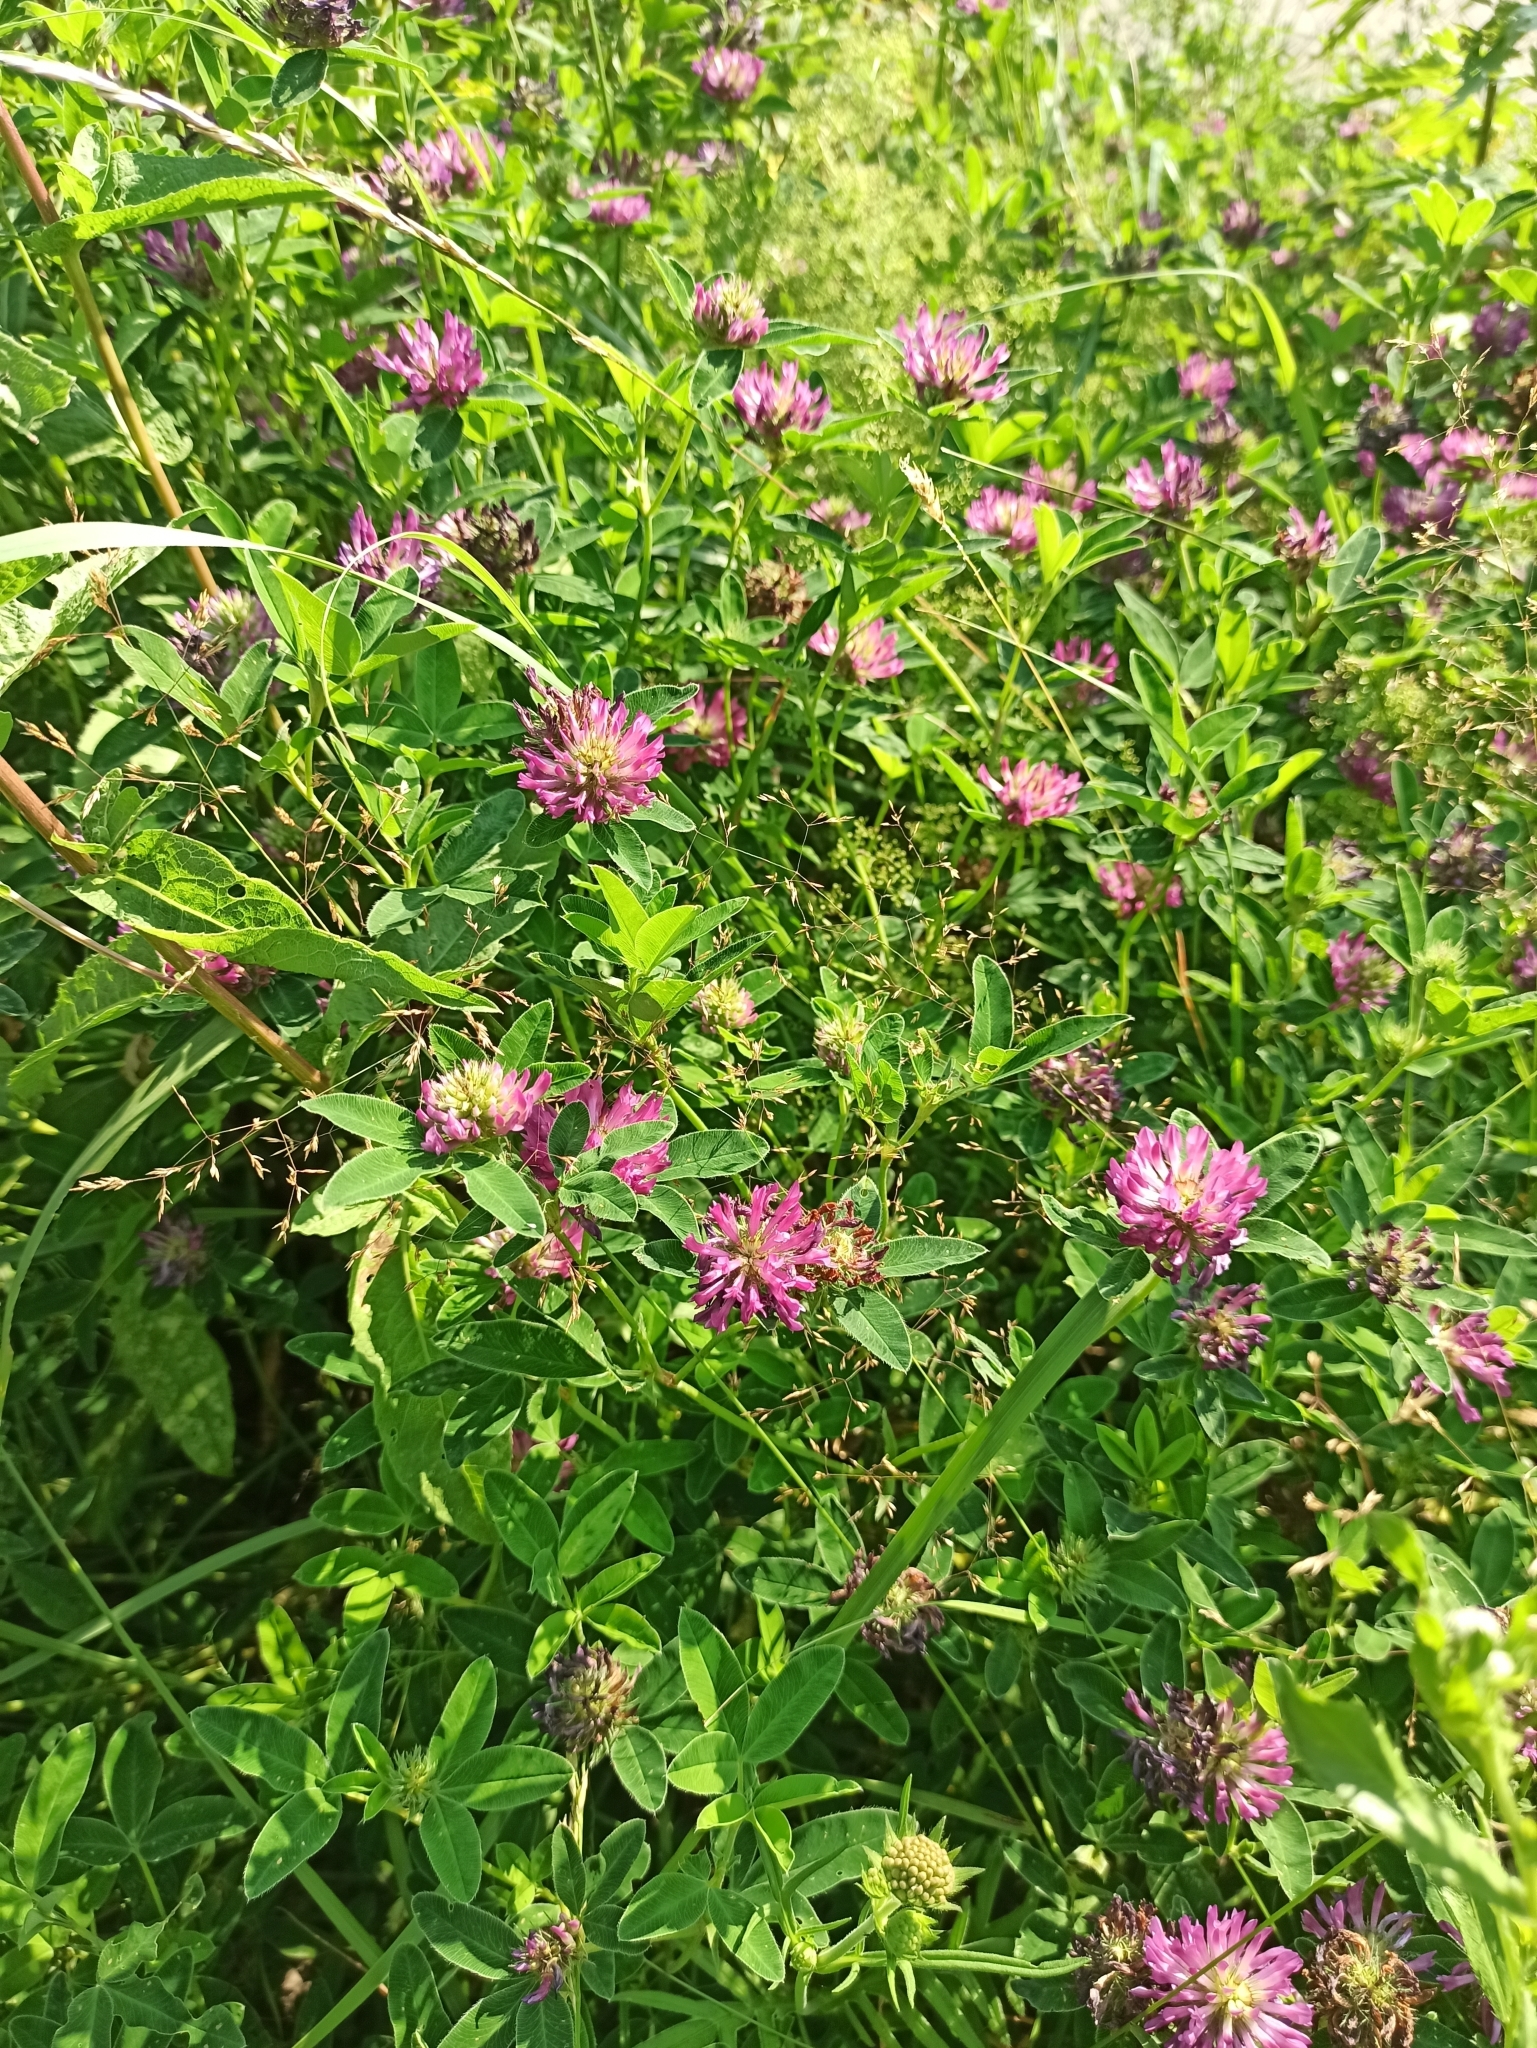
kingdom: Plantae
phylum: Tracheophyta
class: Magnoliopsida
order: Fabales
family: Fabaceae
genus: Trifolium
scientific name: Trifolium medium
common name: Zigzag clover
